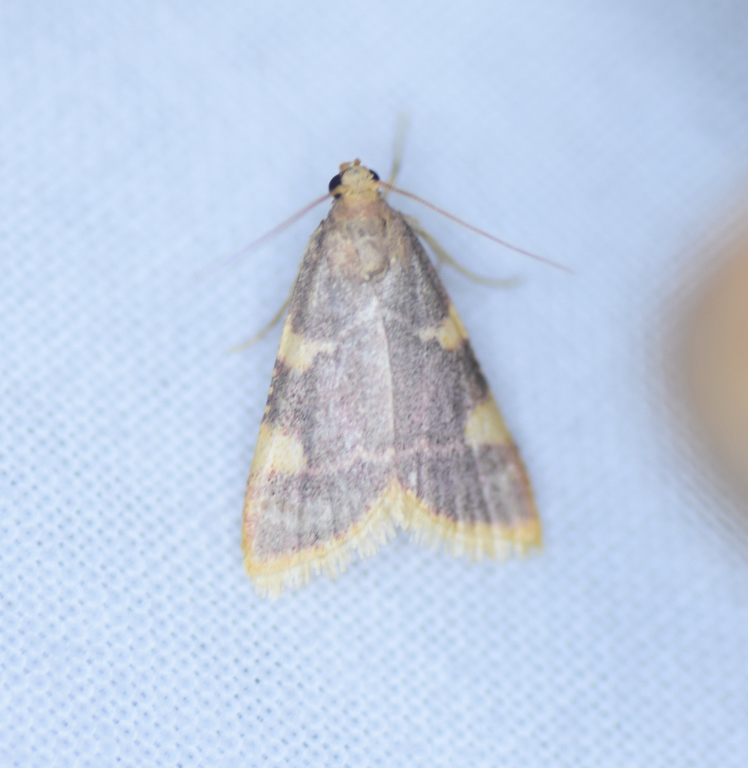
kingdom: Animalia
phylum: Arthropoda
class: Insecta
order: Lepidoptera
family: Pyralidae
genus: Hypsopygia
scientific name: Hypsopygia costalis
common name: Gold triangle
